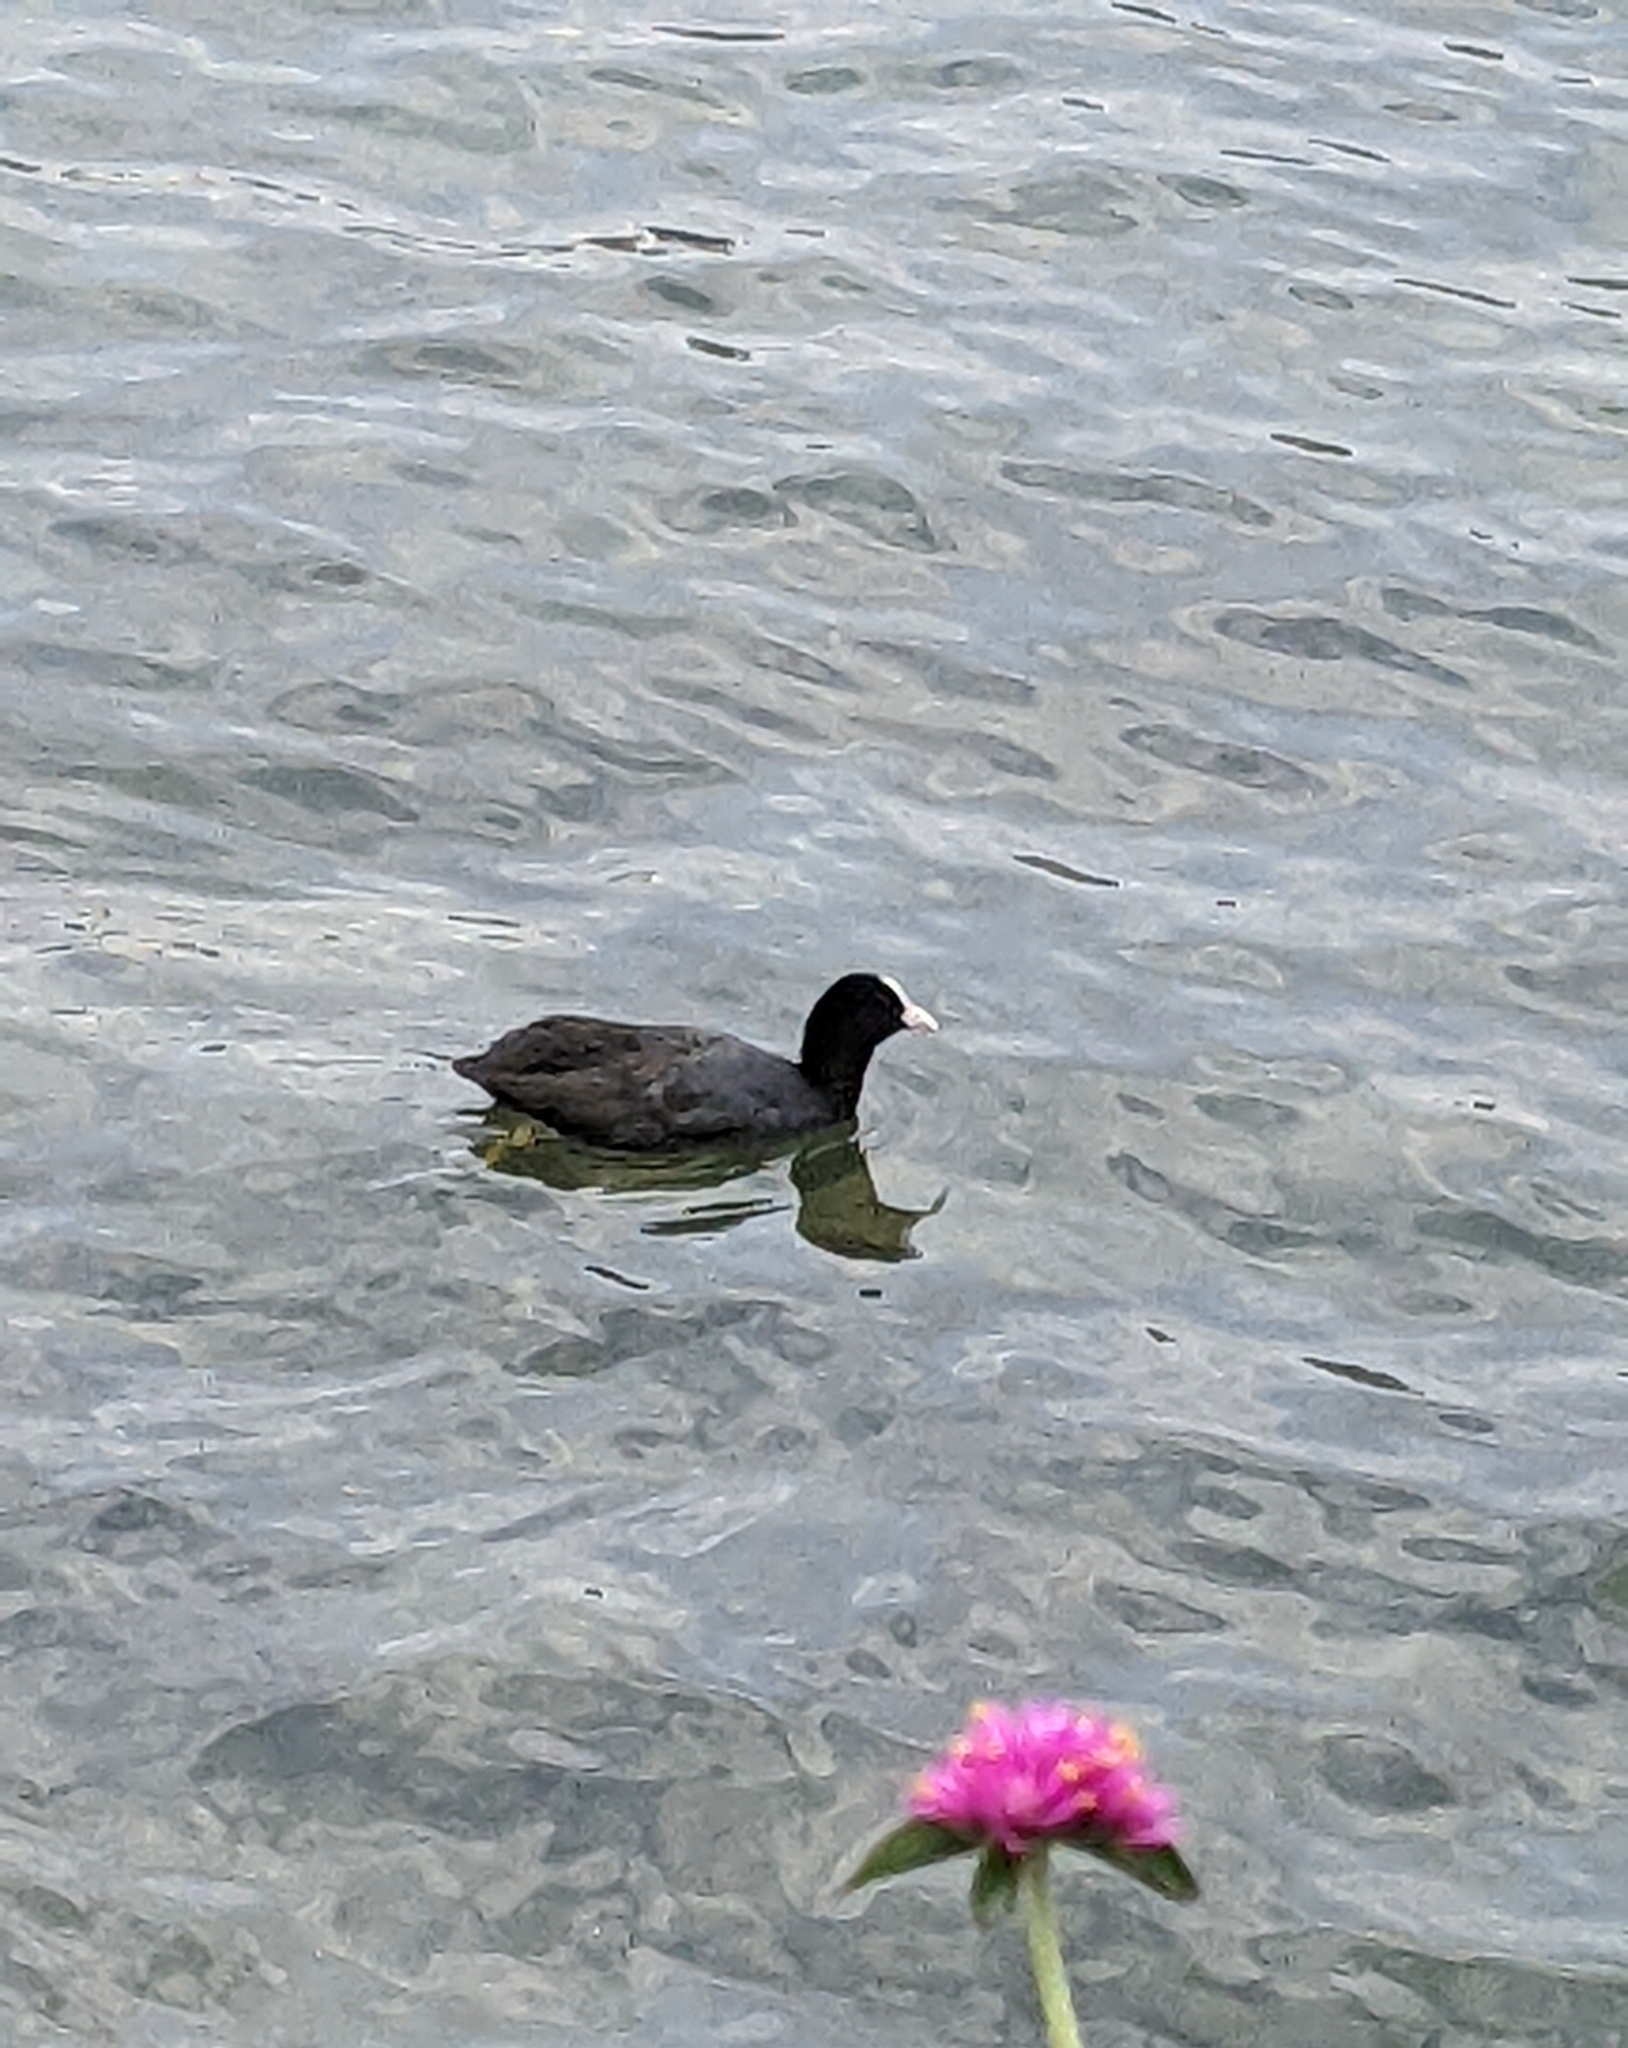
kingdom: Animalia
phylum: Chordata
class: Aves
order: Gruiformes
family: Rallidae
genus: Fulica
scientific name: Fulica atra
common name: Eurasian coot
